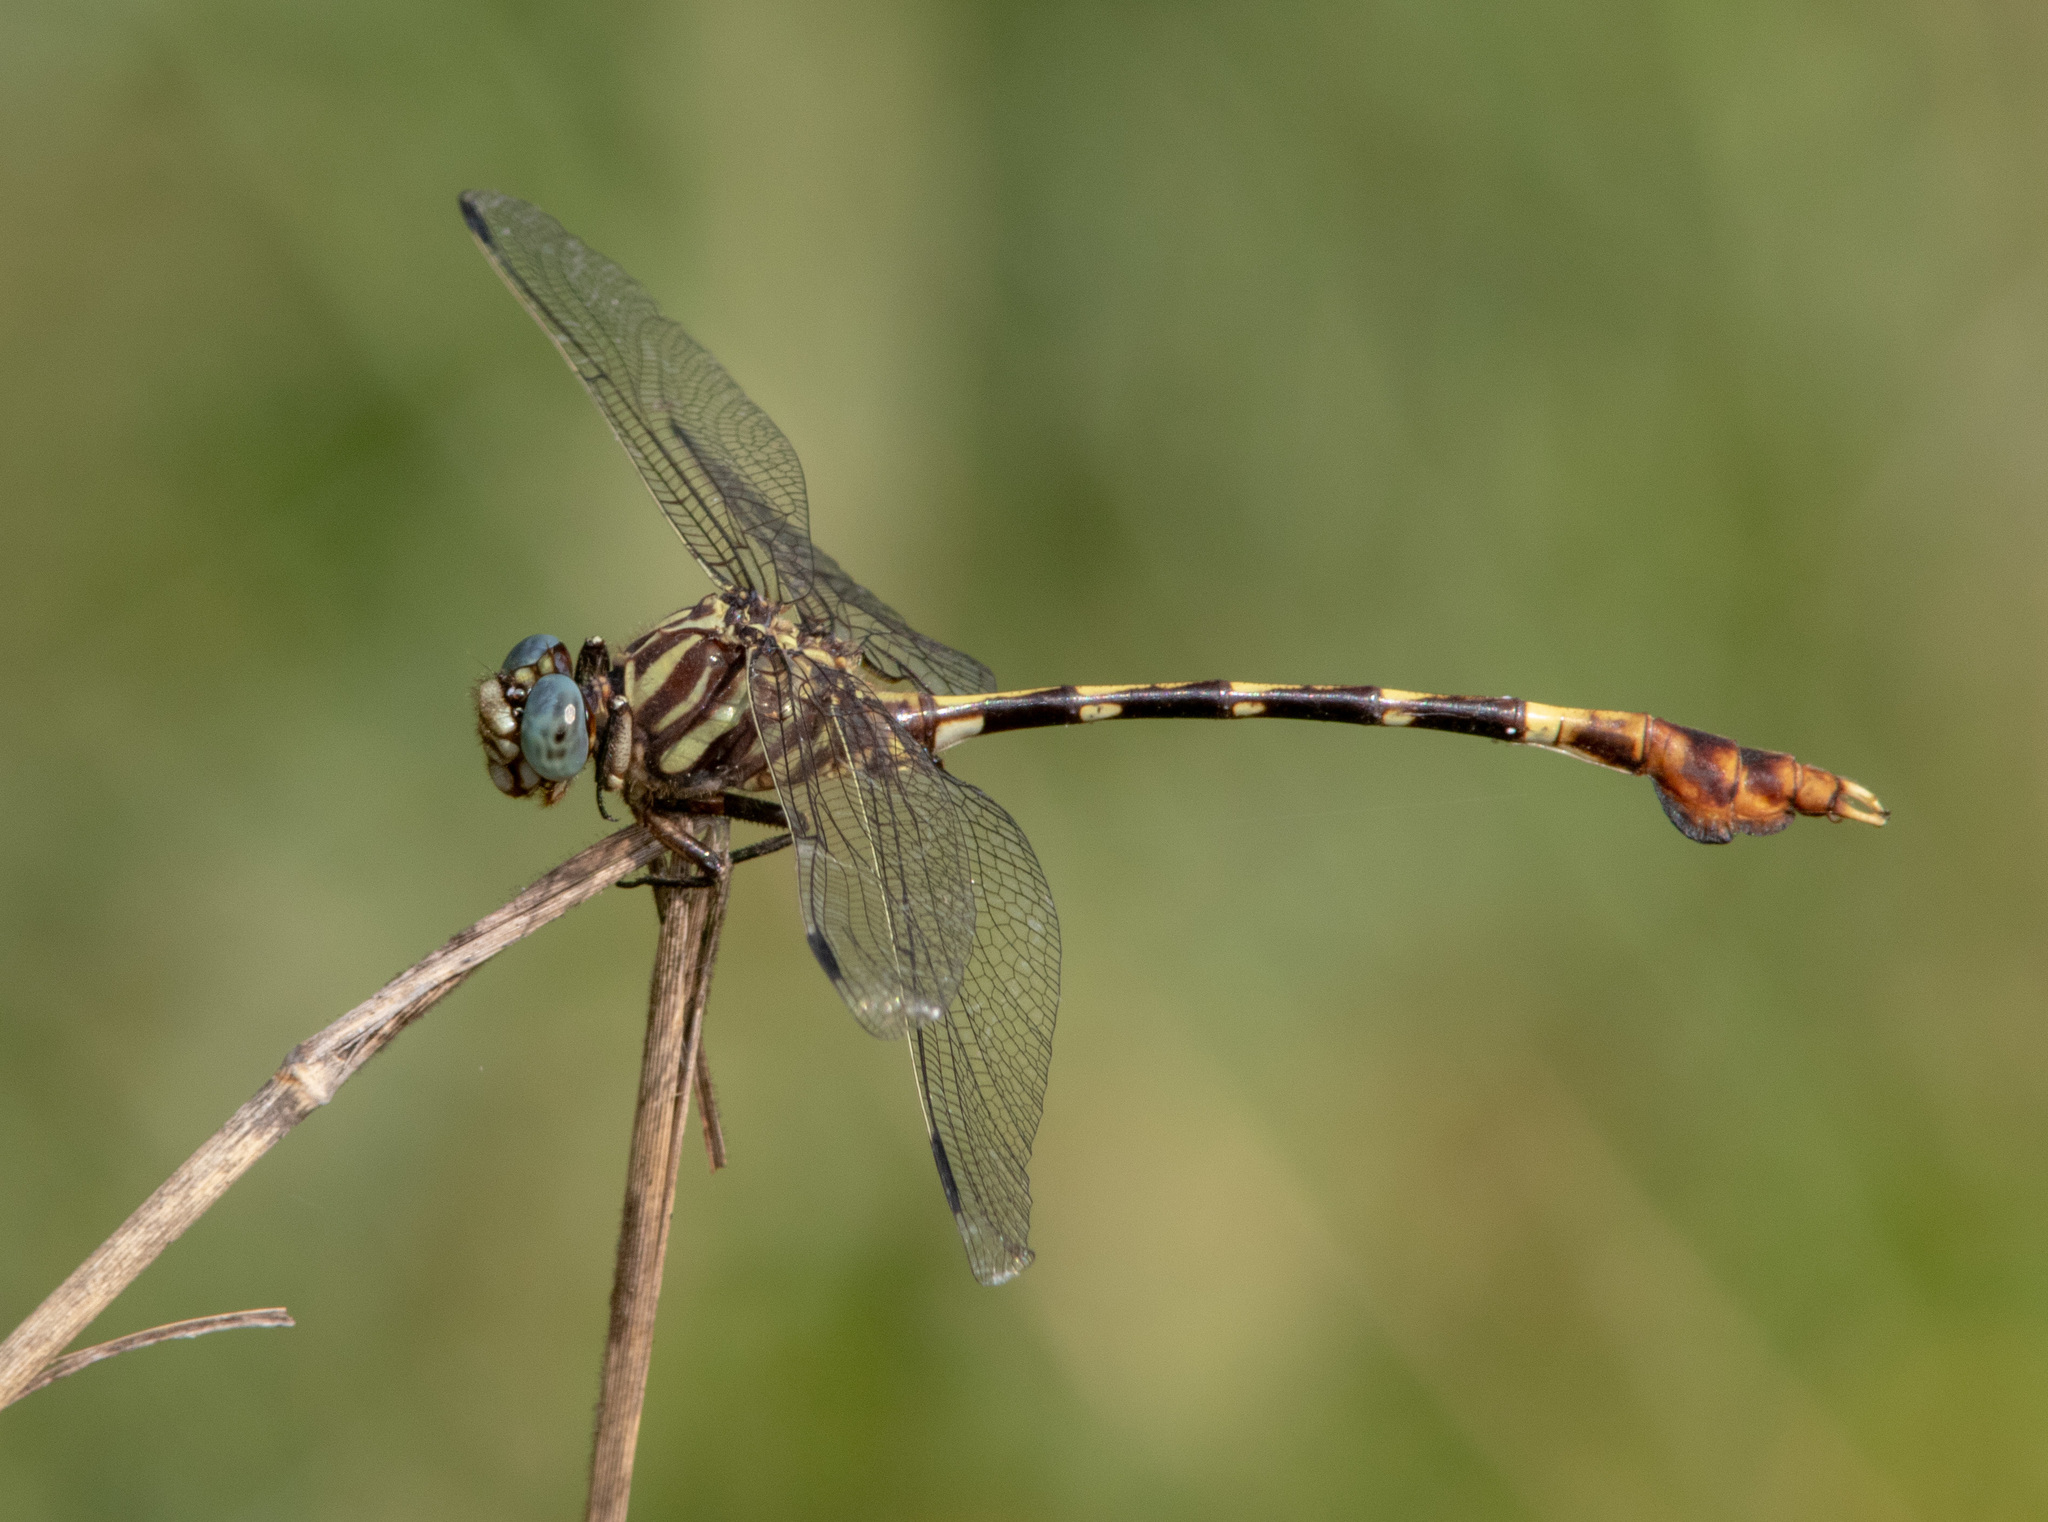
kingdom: Animalia
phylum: Arthropoda
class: Insecta
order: Odonata
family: Gomphidae
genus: Phyllogomphoides
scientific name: Phyllogomphoides albrighti
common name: Five-striped leaftail
